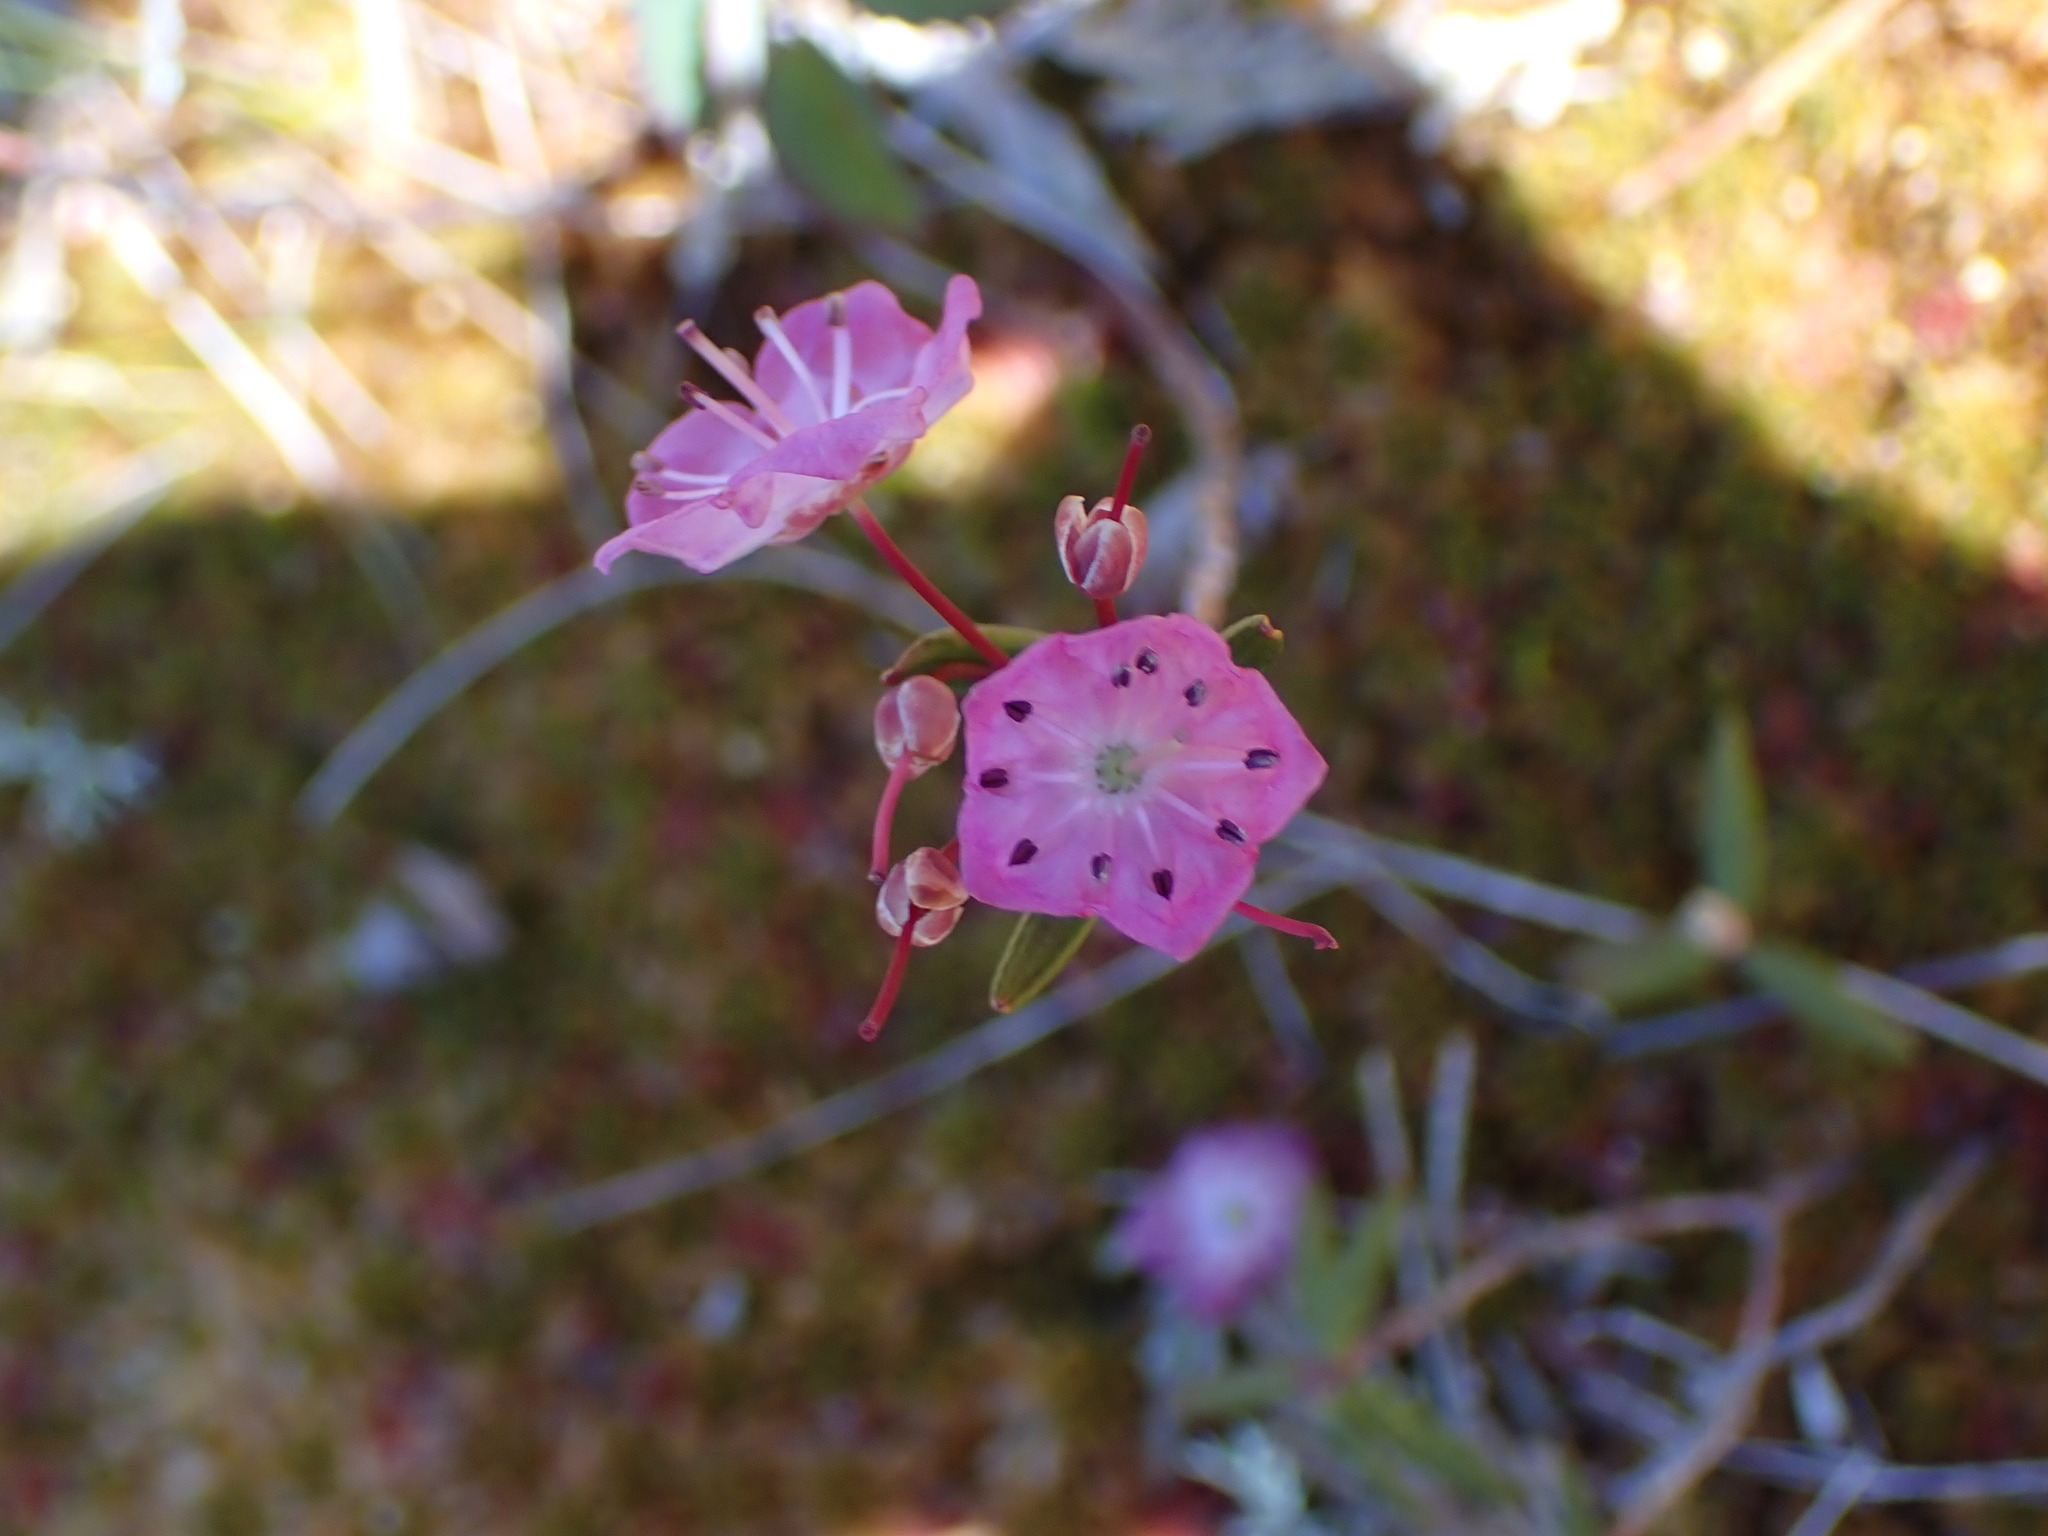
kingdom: Plantae
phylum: Tracheophyta
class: Magnoliopsida
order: Ericales
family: Ericaceae
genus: Kalmia
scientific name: Kalmia microphylla
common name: Alpine bog laurel
